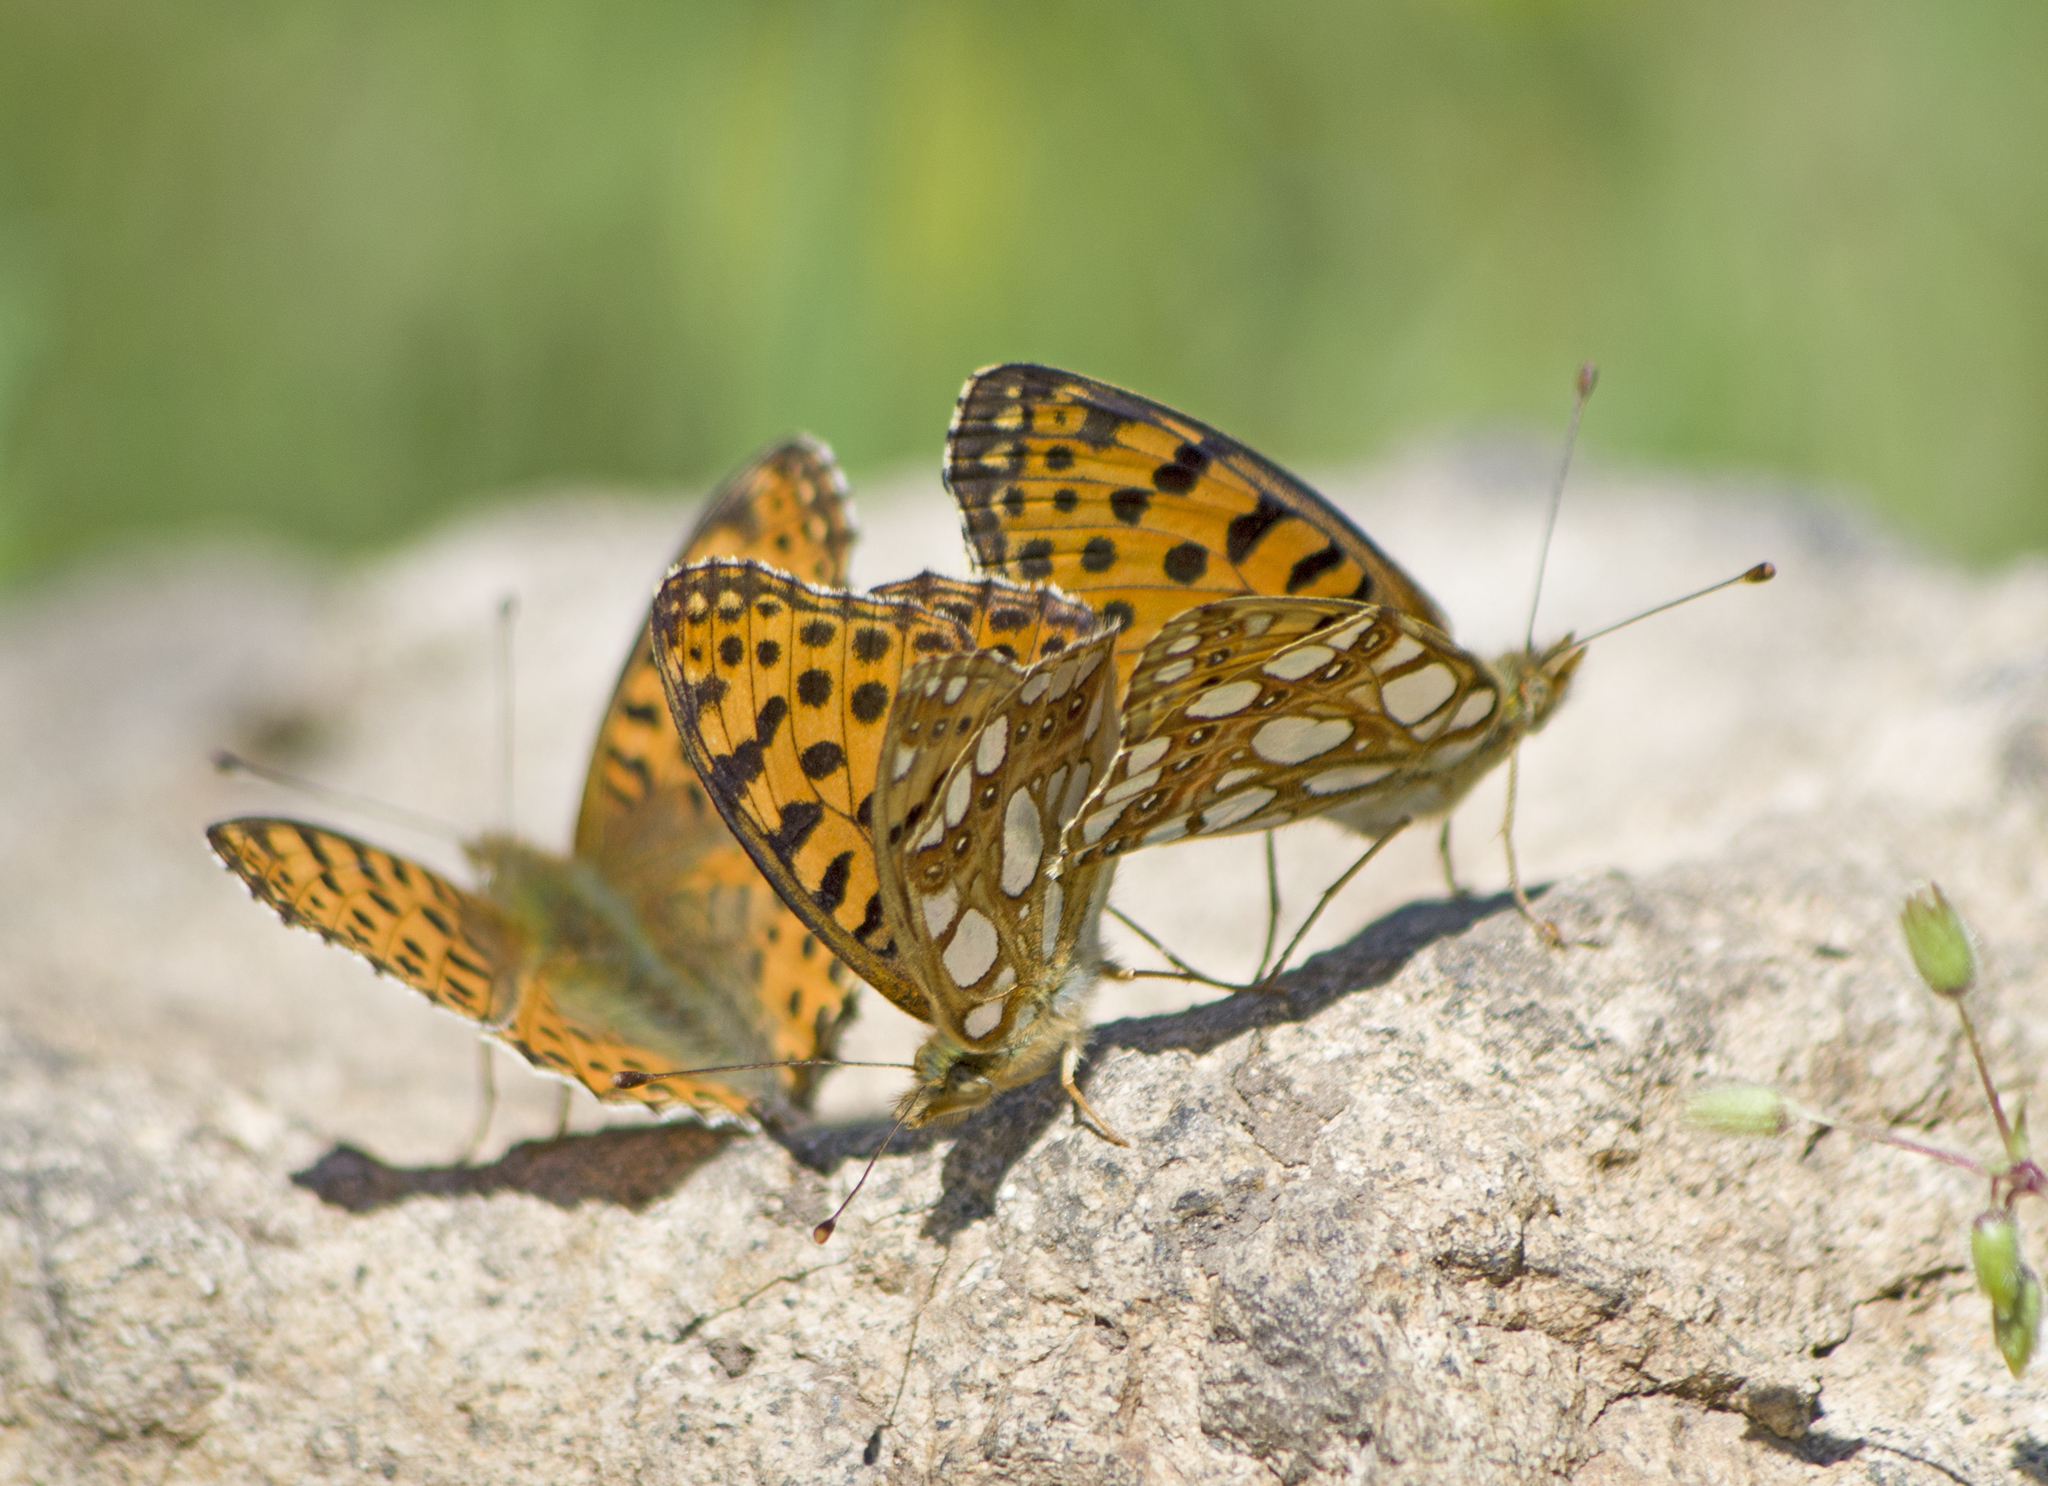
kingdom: Animalia
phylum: Arthropoda
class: Insecta
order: Lepidoptera
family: Nymphalidae
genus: Issoria
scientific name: Issoria lathonia
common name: Queen of spain fritillary
